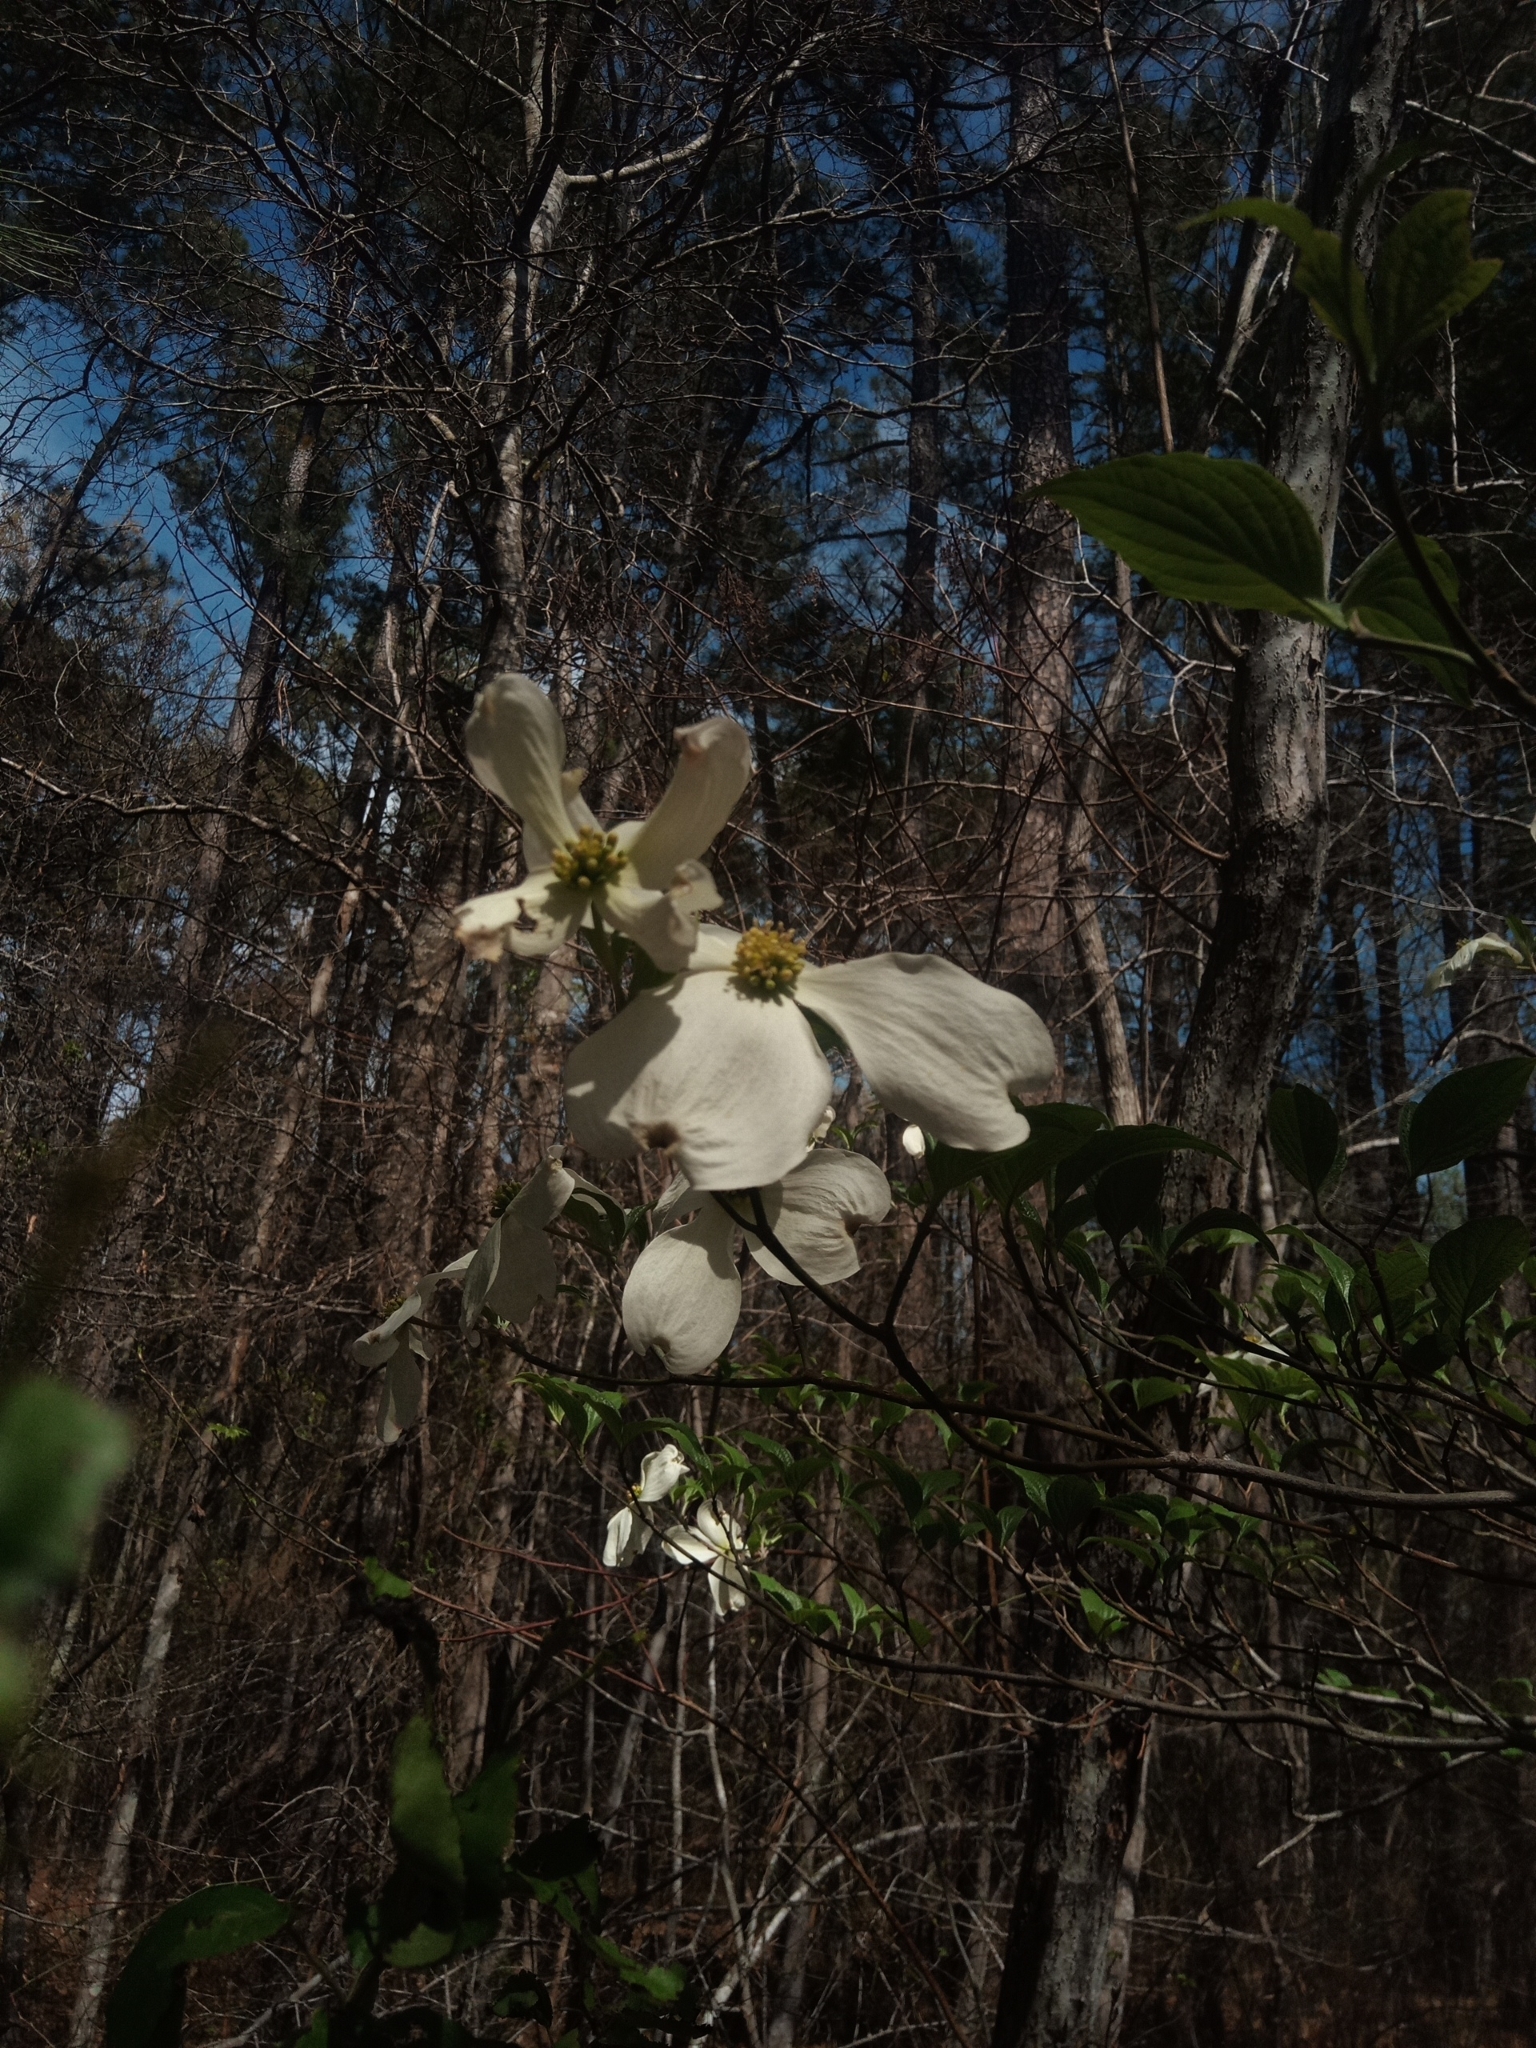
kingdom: Plantae
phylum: Tracheophyta
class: Magnoliopsida
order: Cornales
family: Cornaceae
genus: Cornus
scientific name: Cornus florida
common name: Flowering dogwood
